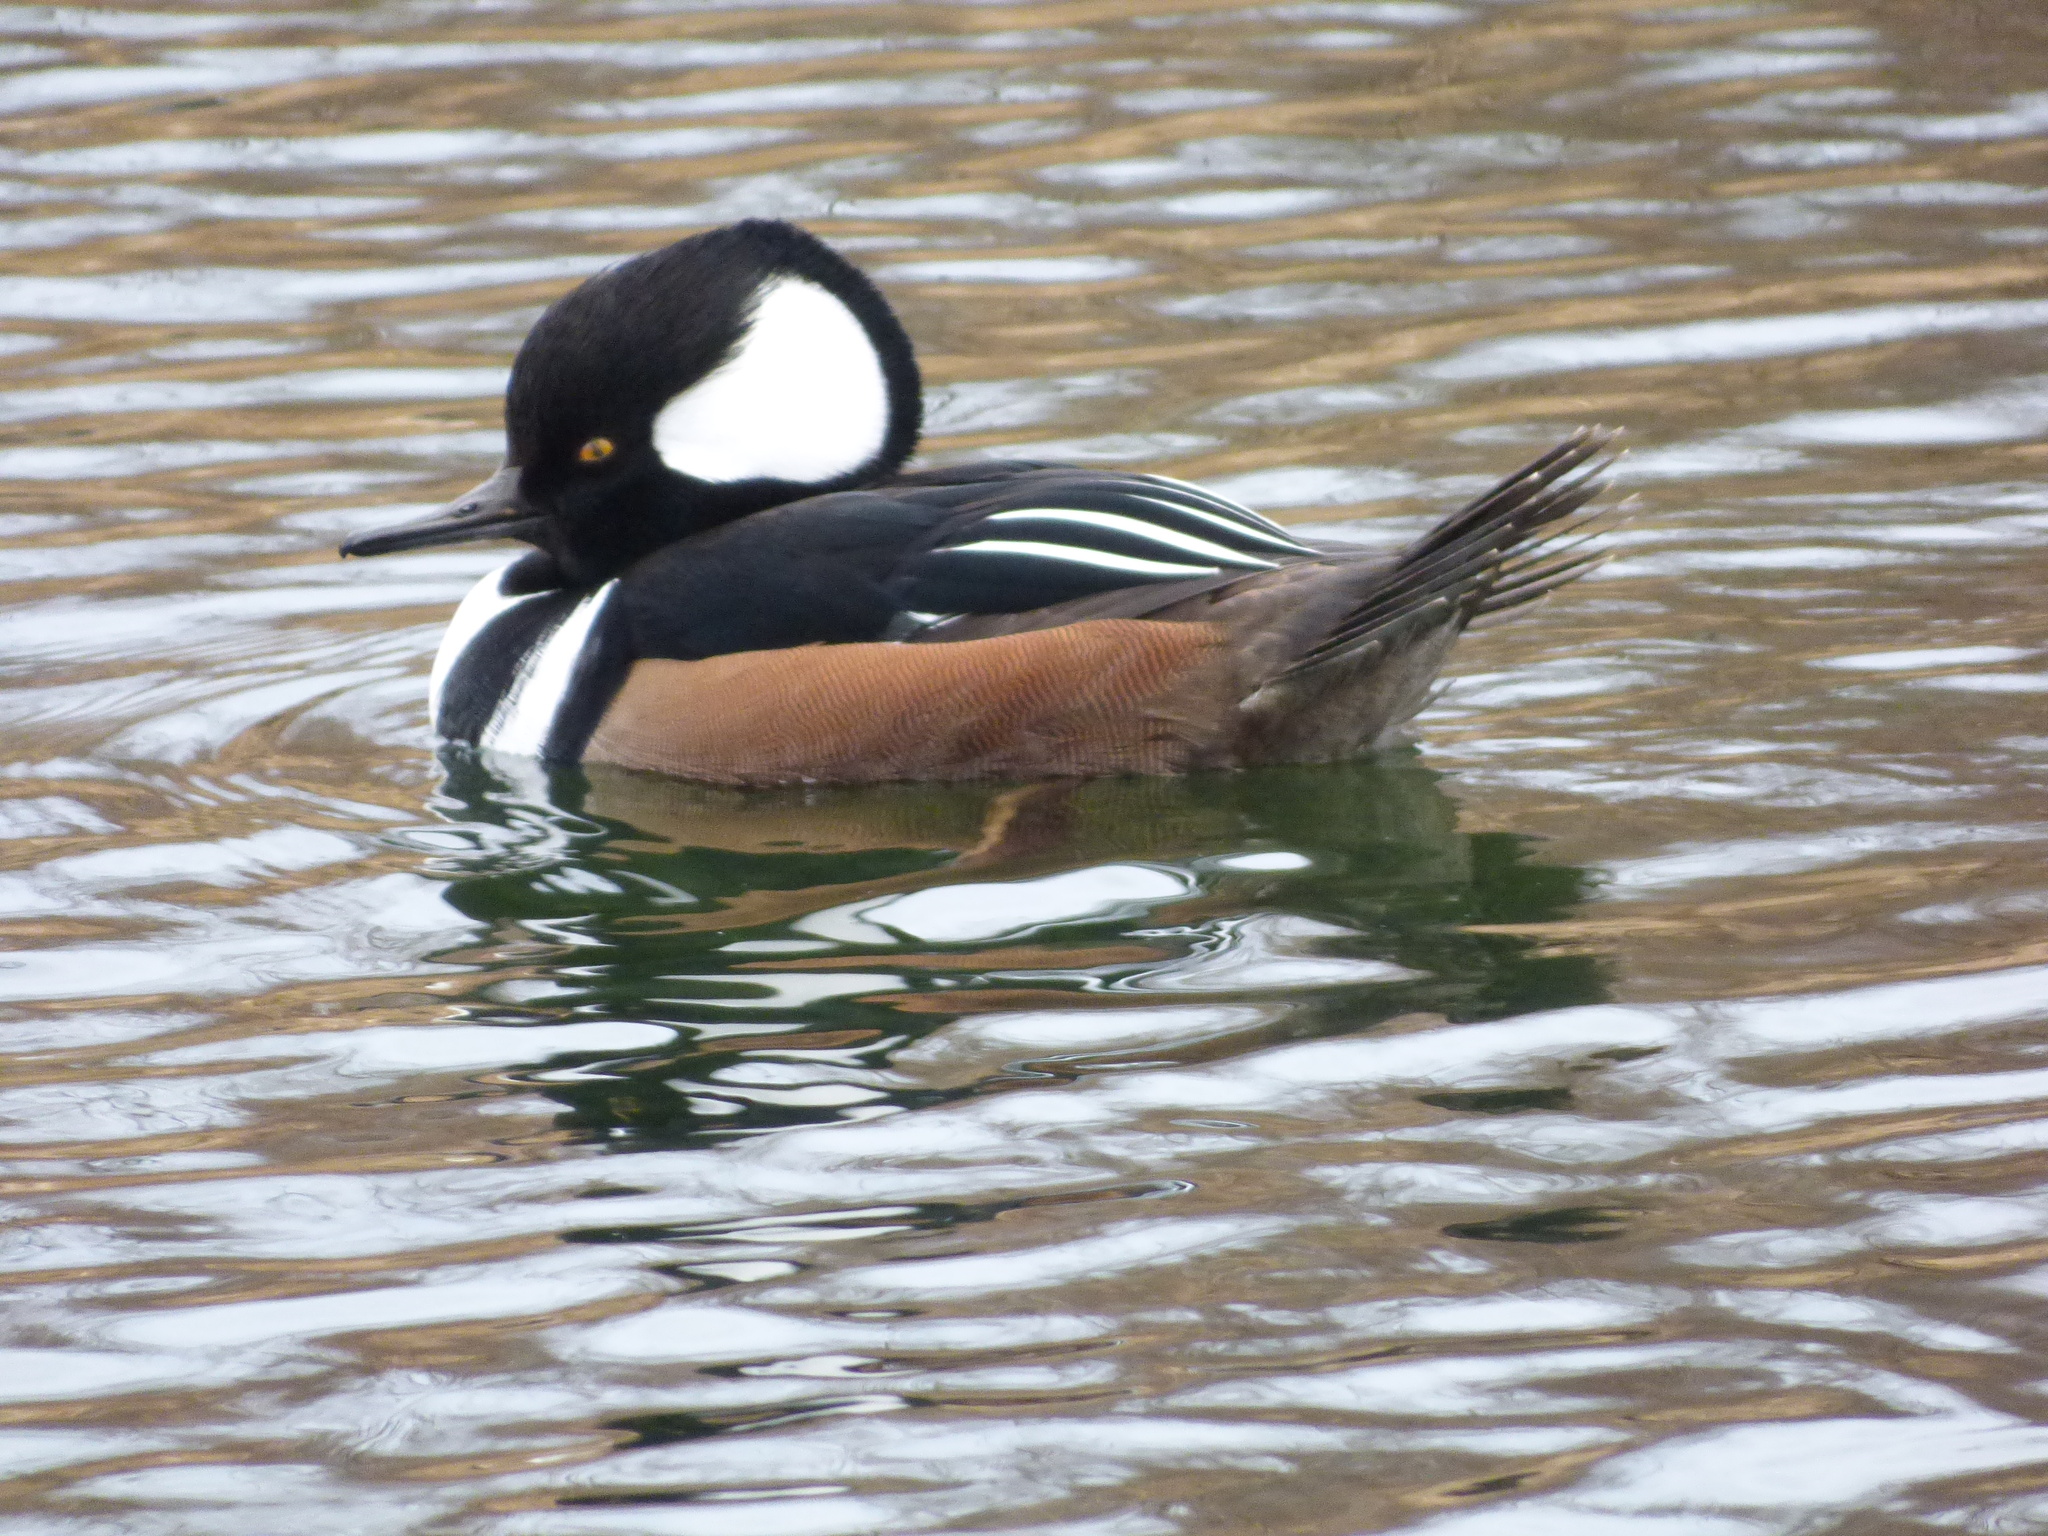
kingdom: Animalia
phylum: Chordata
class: Aves
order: Anseriformes
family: Anatidae
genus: Lophodytes
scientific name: Lophodytes cucullatus
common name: Hooded merganser
